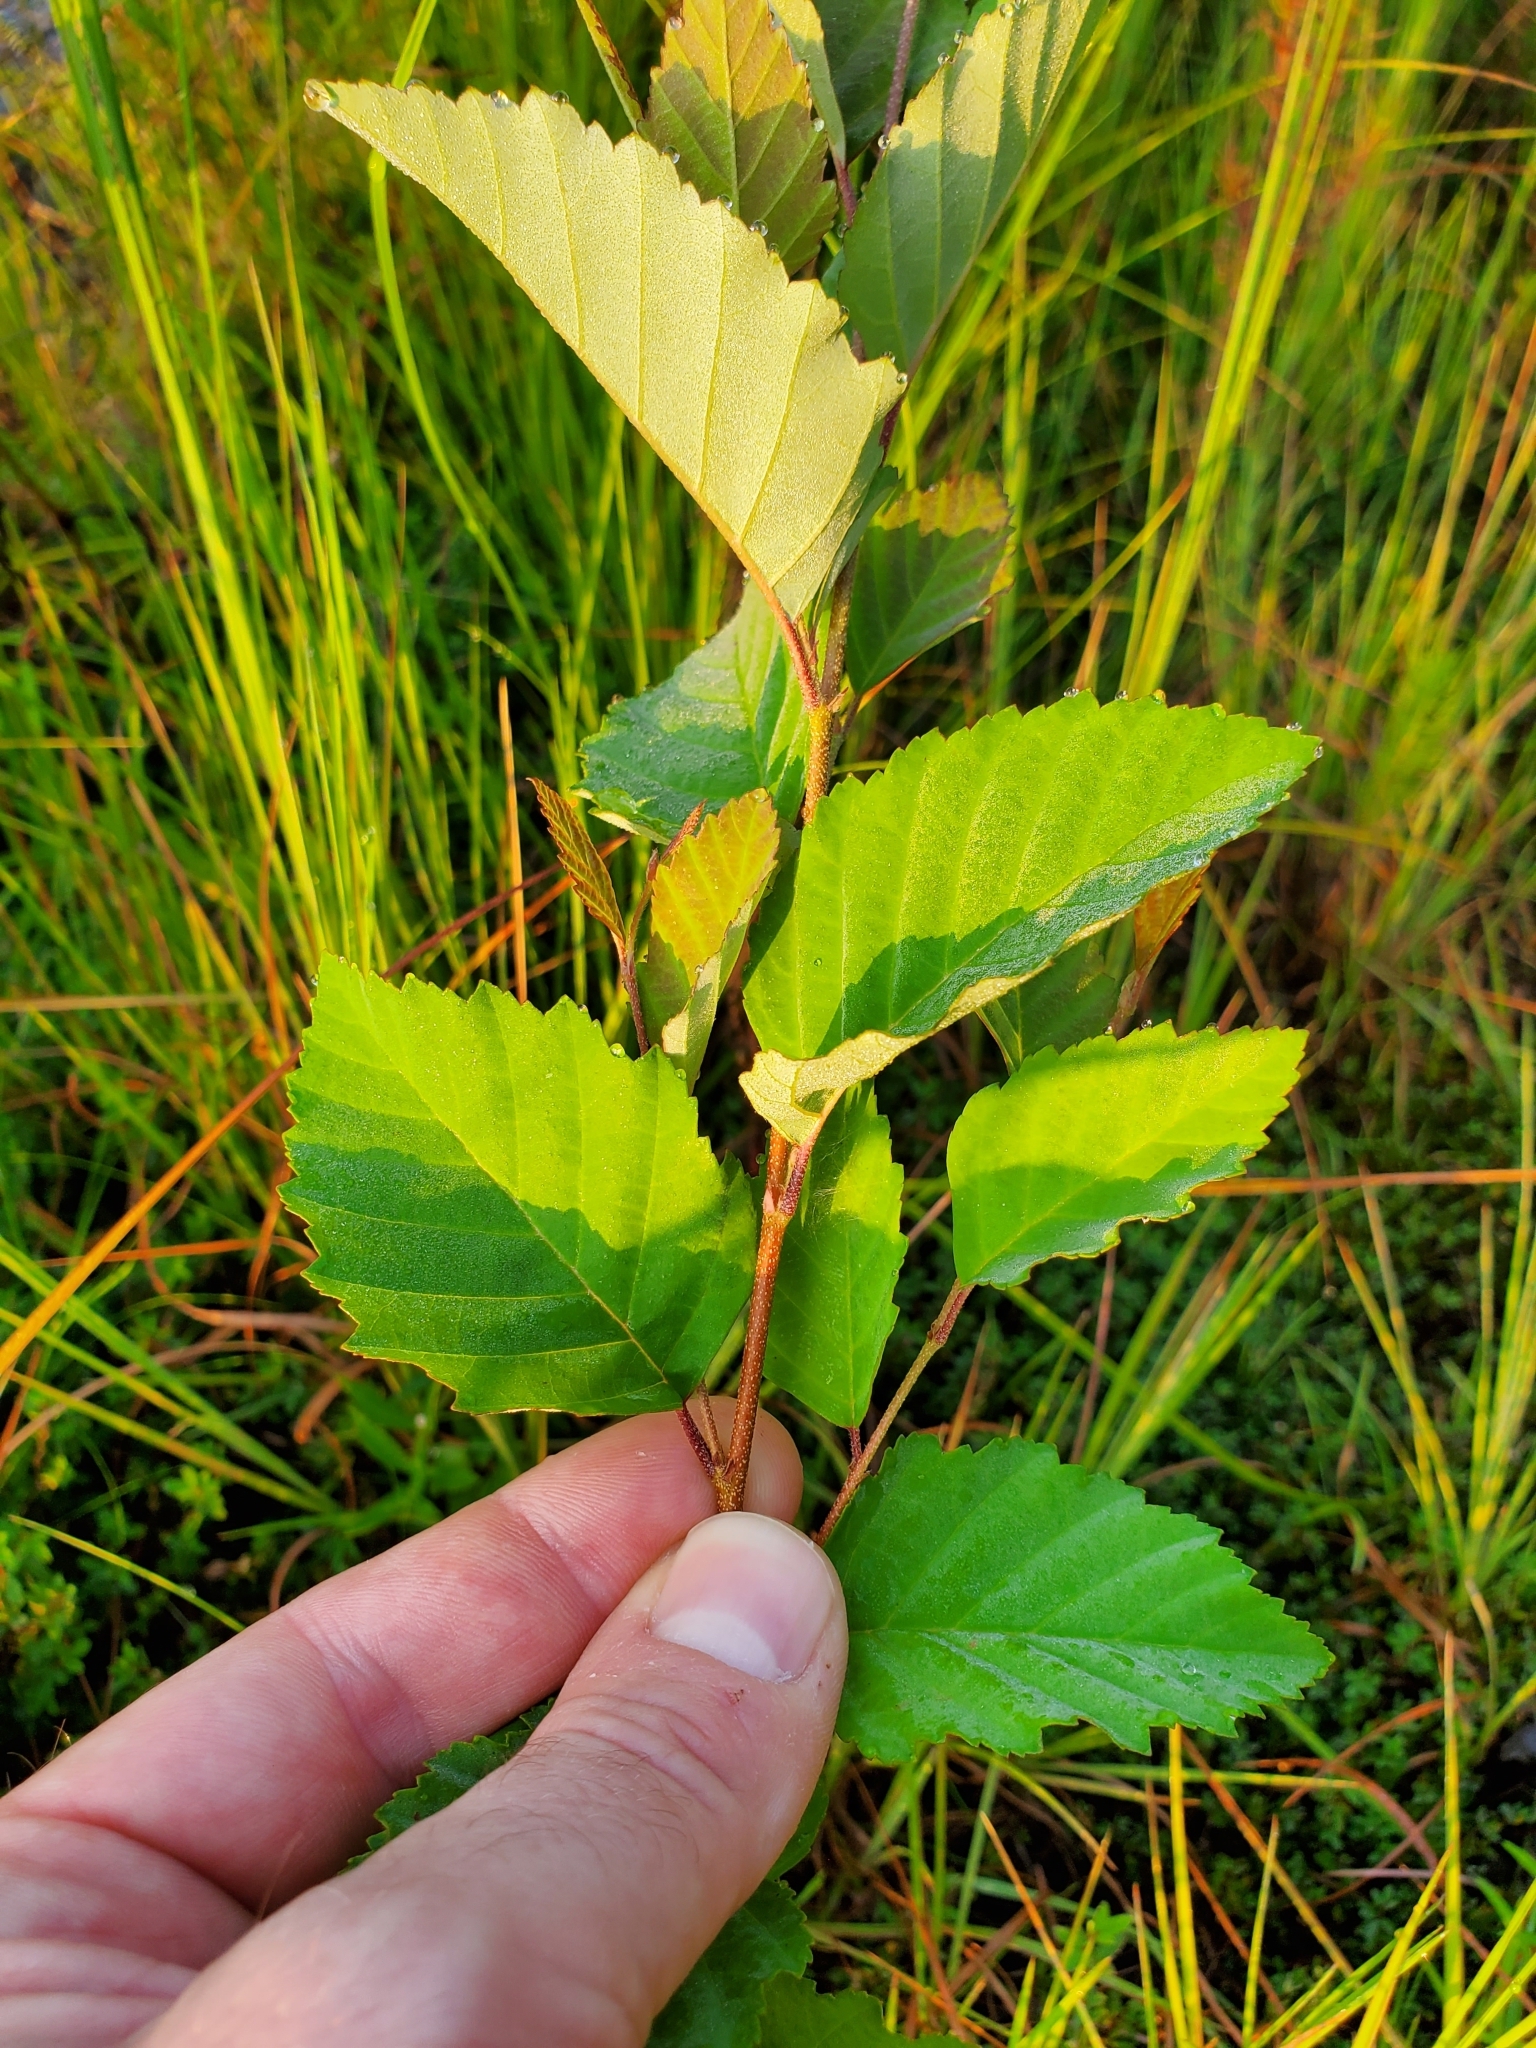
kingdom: Plantae
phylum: Tracheophyta
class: Magnoliopsida
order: Fagales
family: Betulaceae
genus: Betula
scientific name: Betula nigra
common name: Black birch
